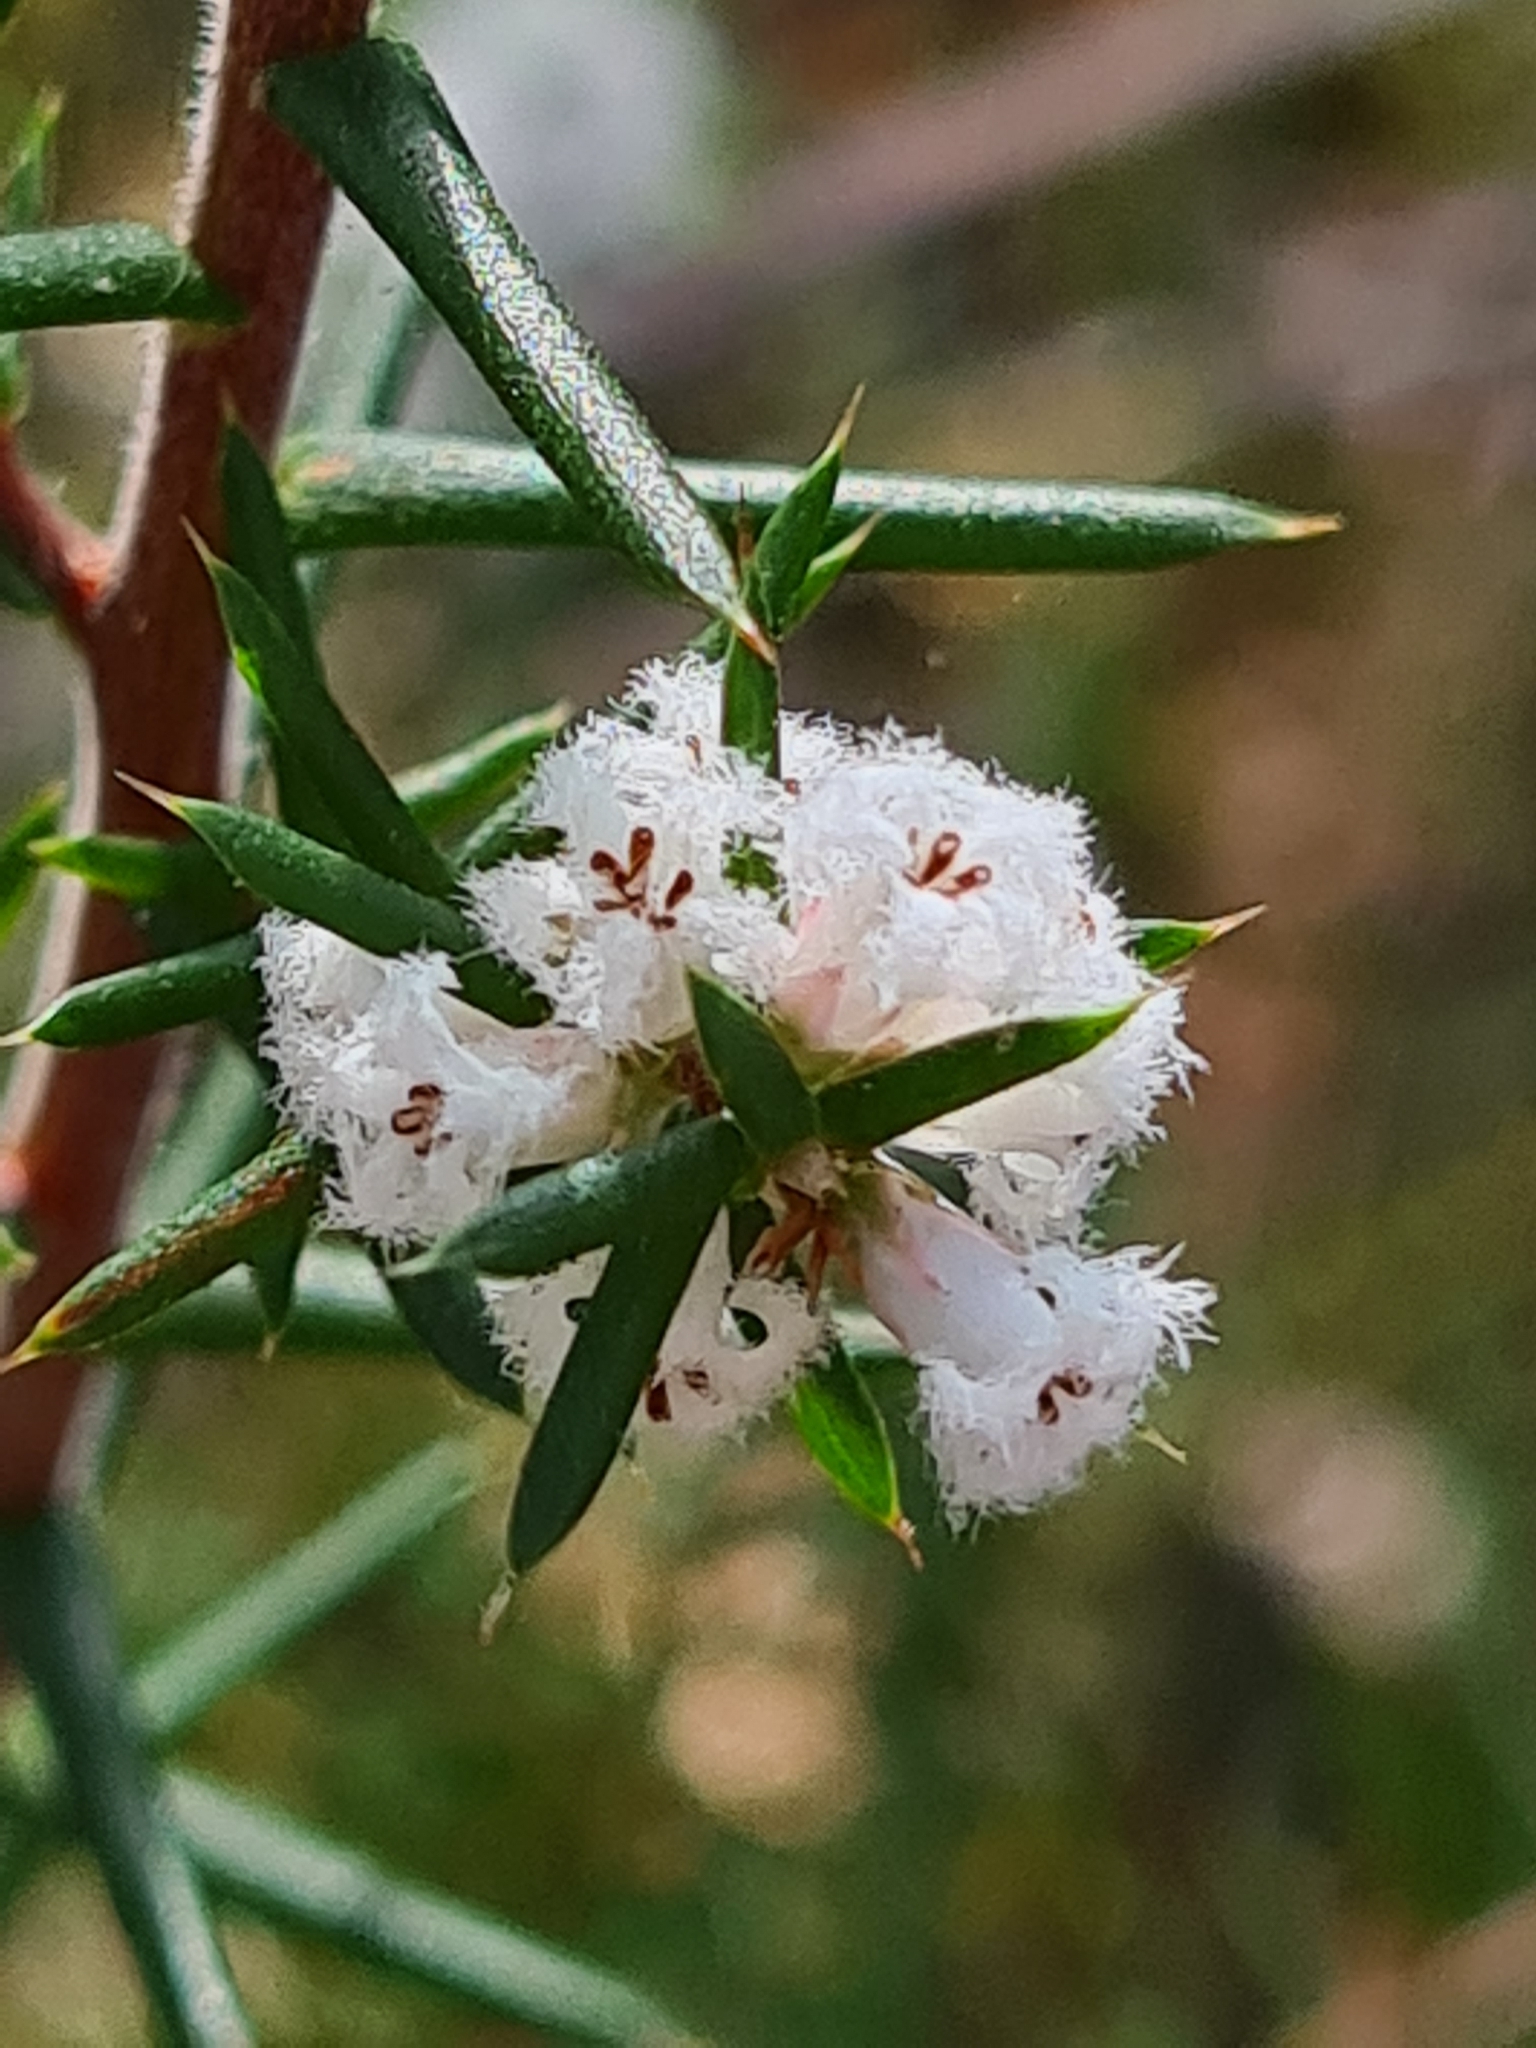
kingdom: Plantae
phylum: Tracheophyta
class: Magnoliopsida
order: Ericales
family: Ericaceae
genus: Styphelia
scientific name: Styphelia ericoides
